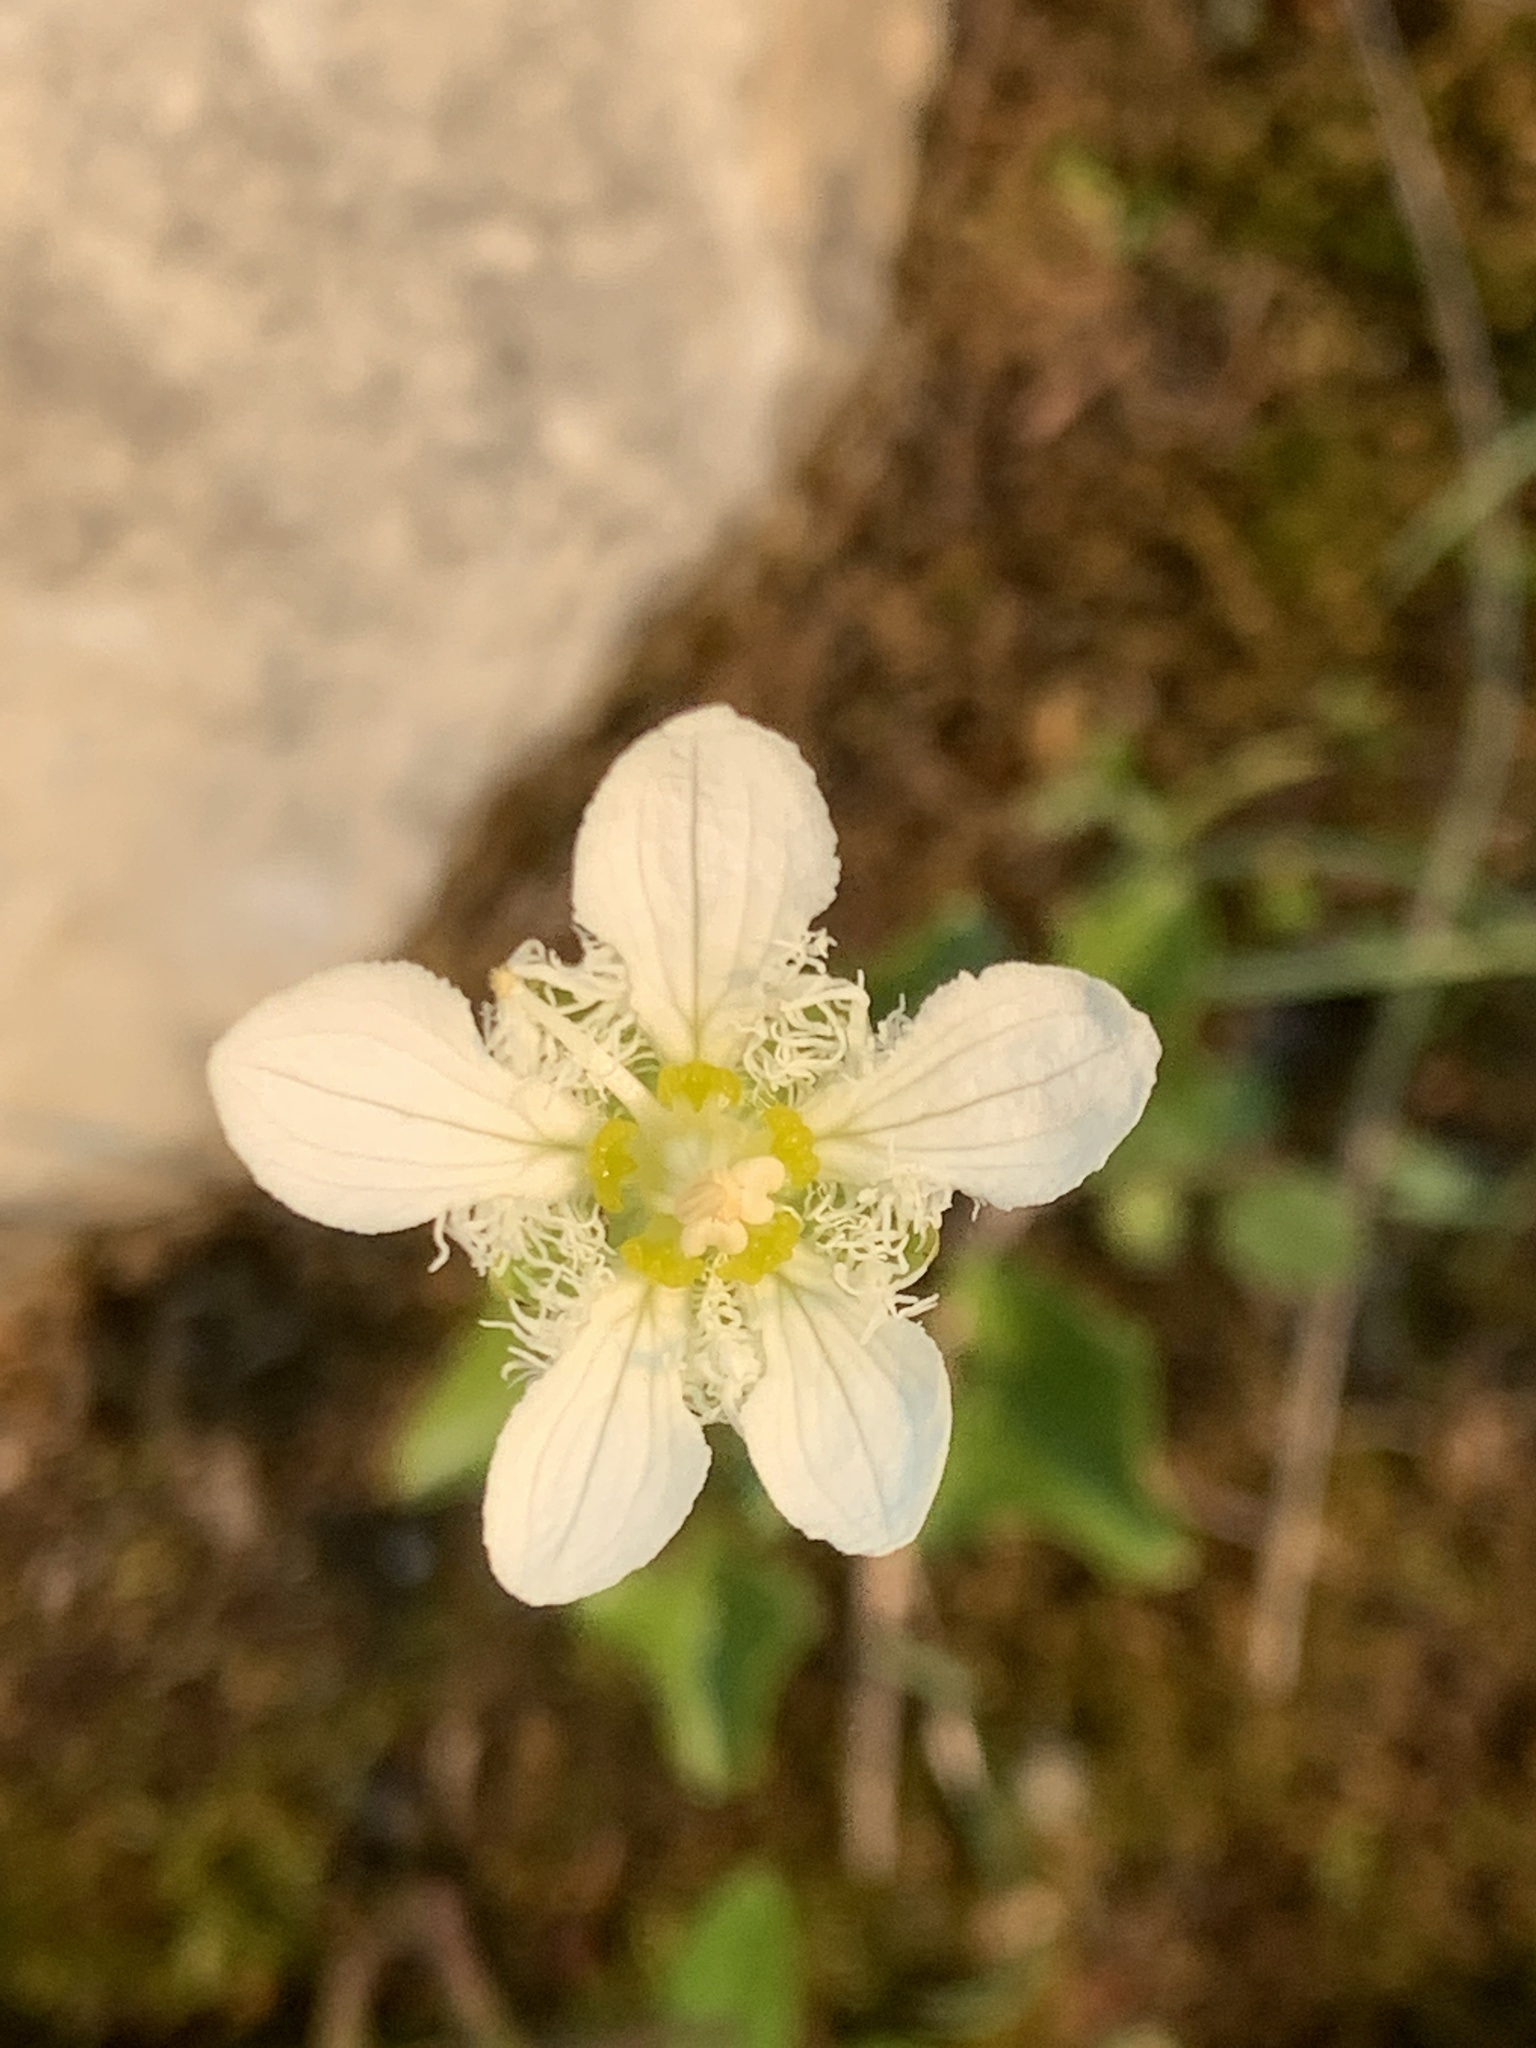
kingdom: Plantae
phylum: Tracheophyta
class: Magnoliopsida
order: Celastrales
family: Parnassiaceae
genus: Parnassia
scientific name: Parnassia fimbriata
